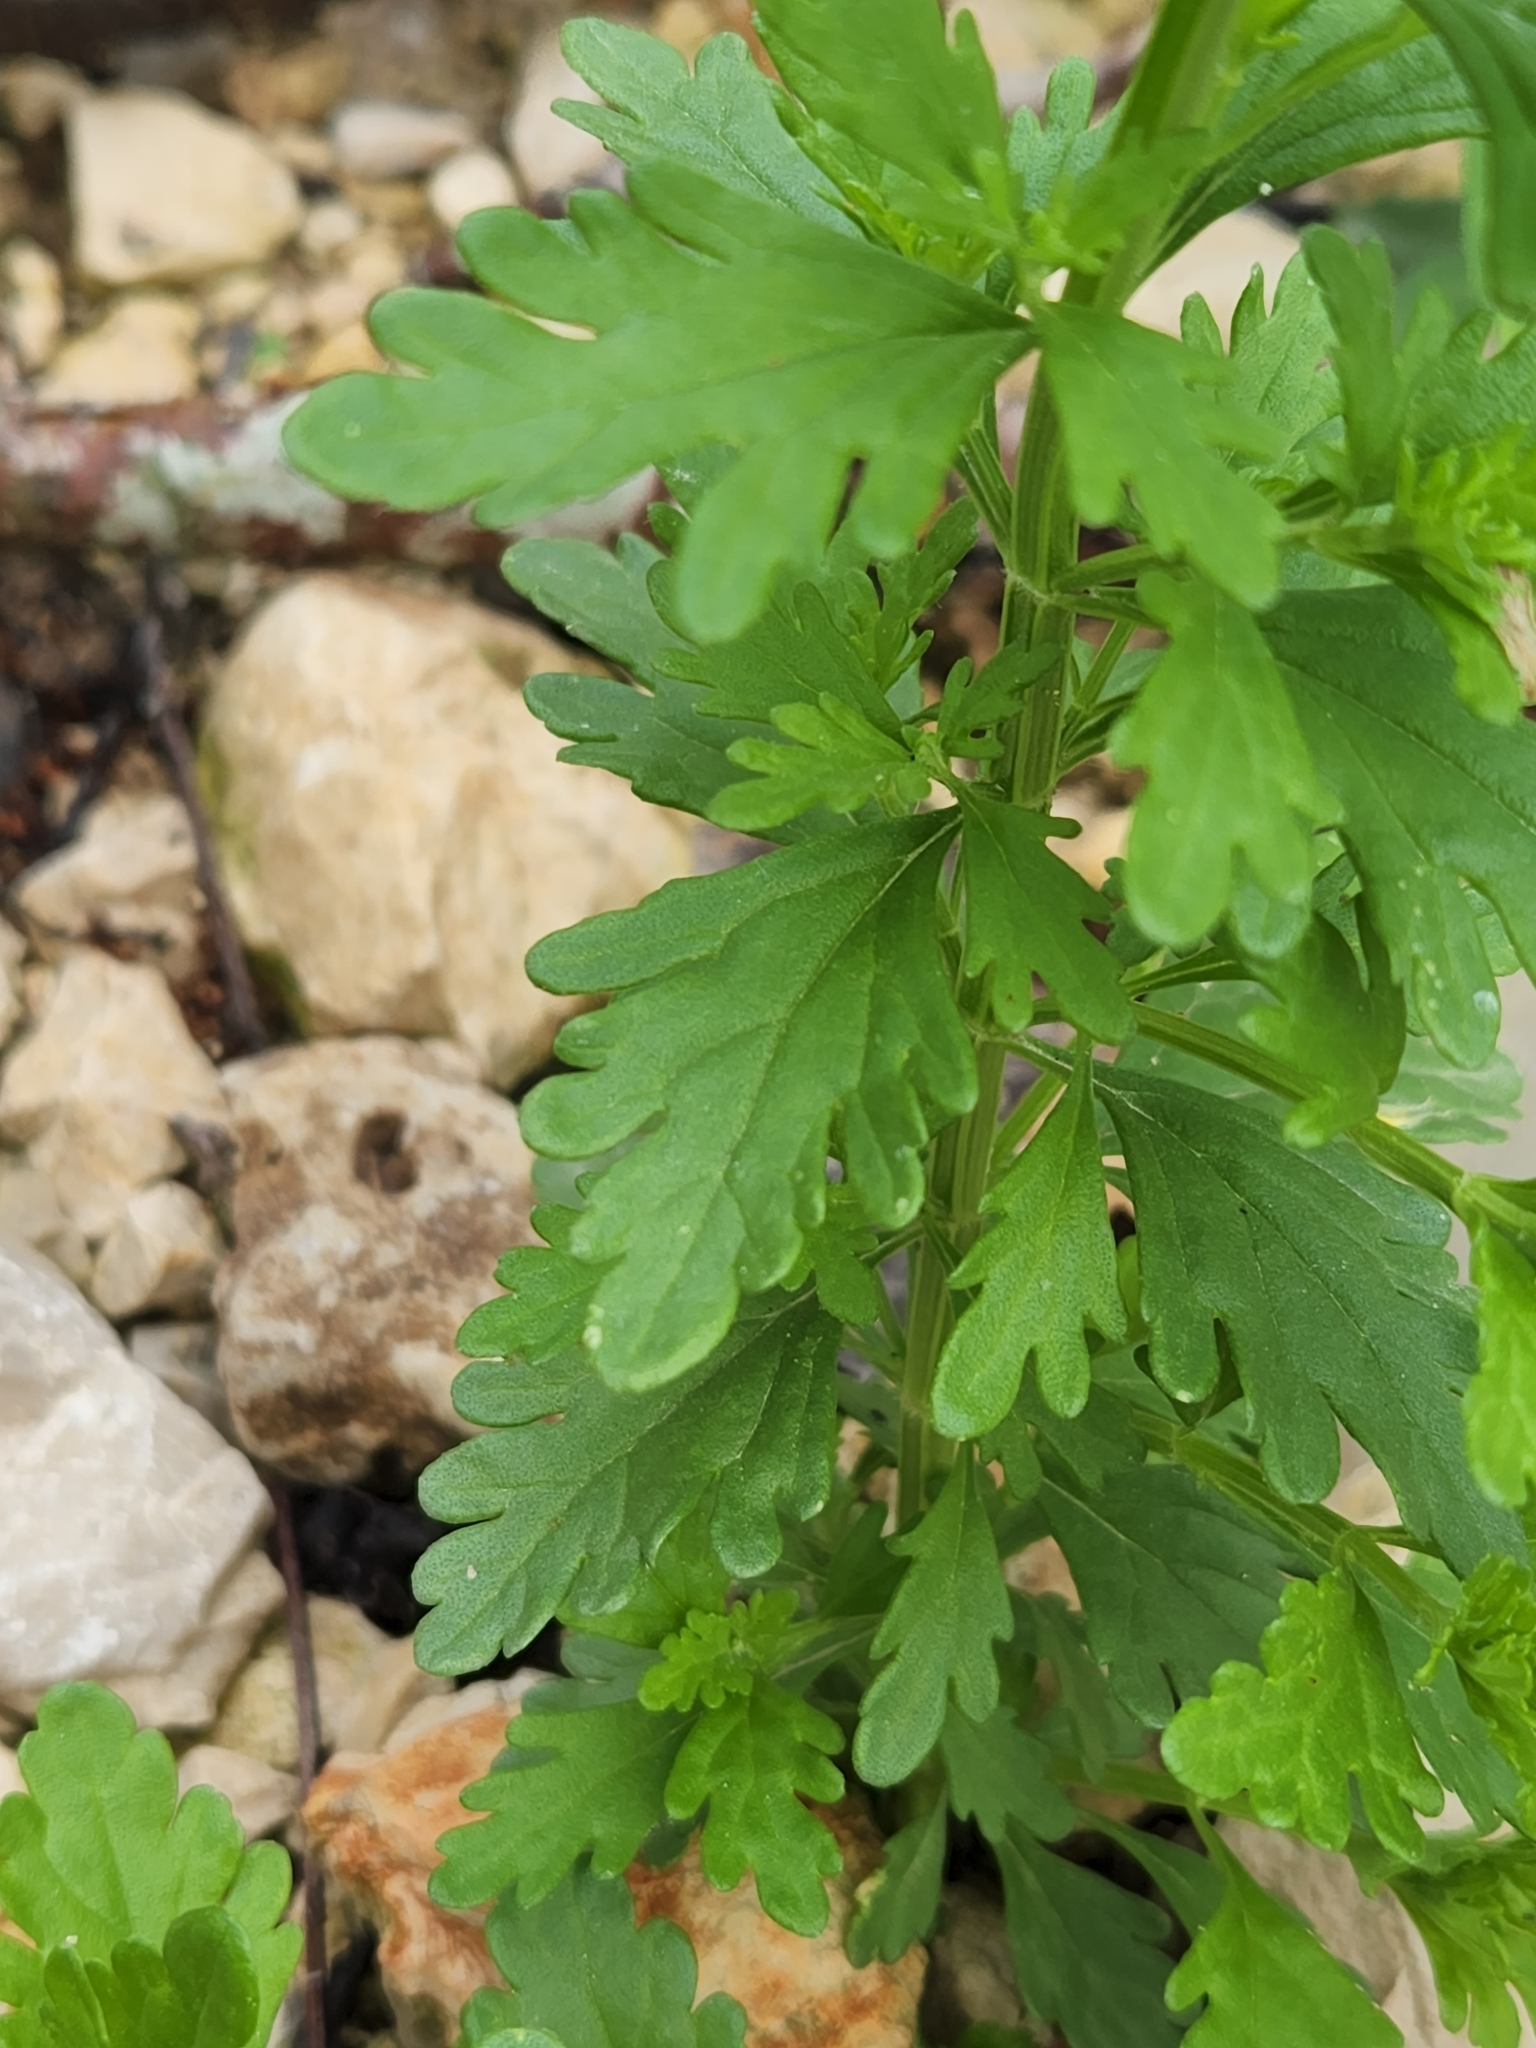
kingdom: Plantae
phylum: Tracheophyta
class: Magnoliopsida
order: Lamiales
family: Lamiaceae
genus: Teucrium
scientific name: Teucrium cubense
